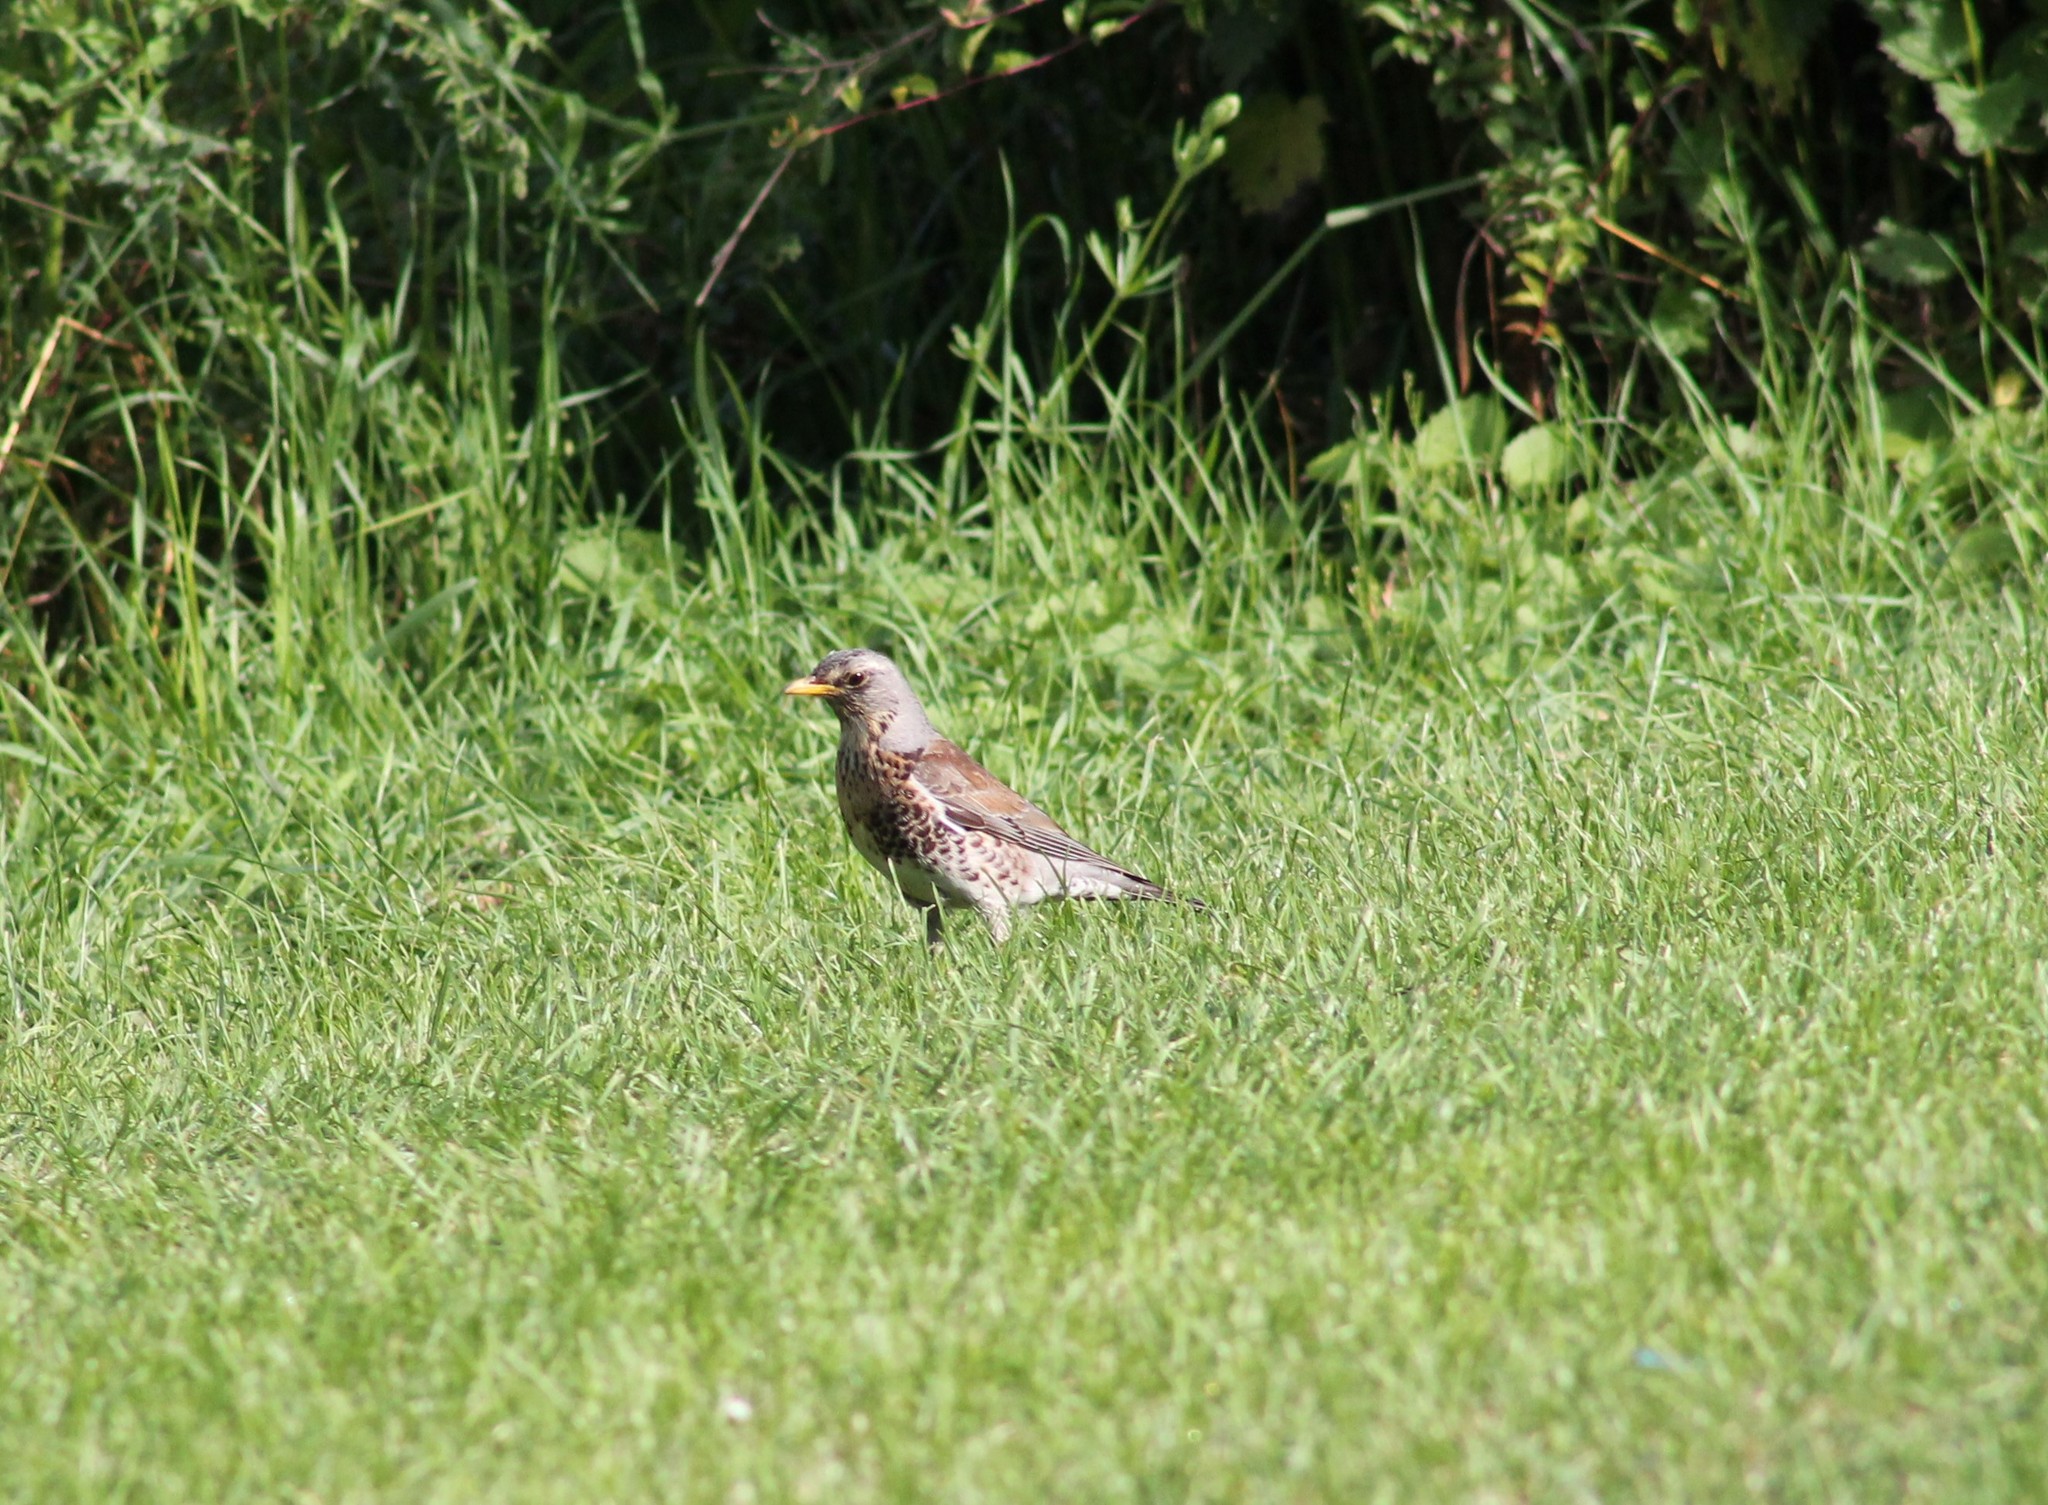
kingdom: Animalia
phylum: Chordata
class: Aves
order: Passeriformes
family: Turdidae
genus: Turdus
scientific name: Turdus pilaris
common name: Fieldfare
